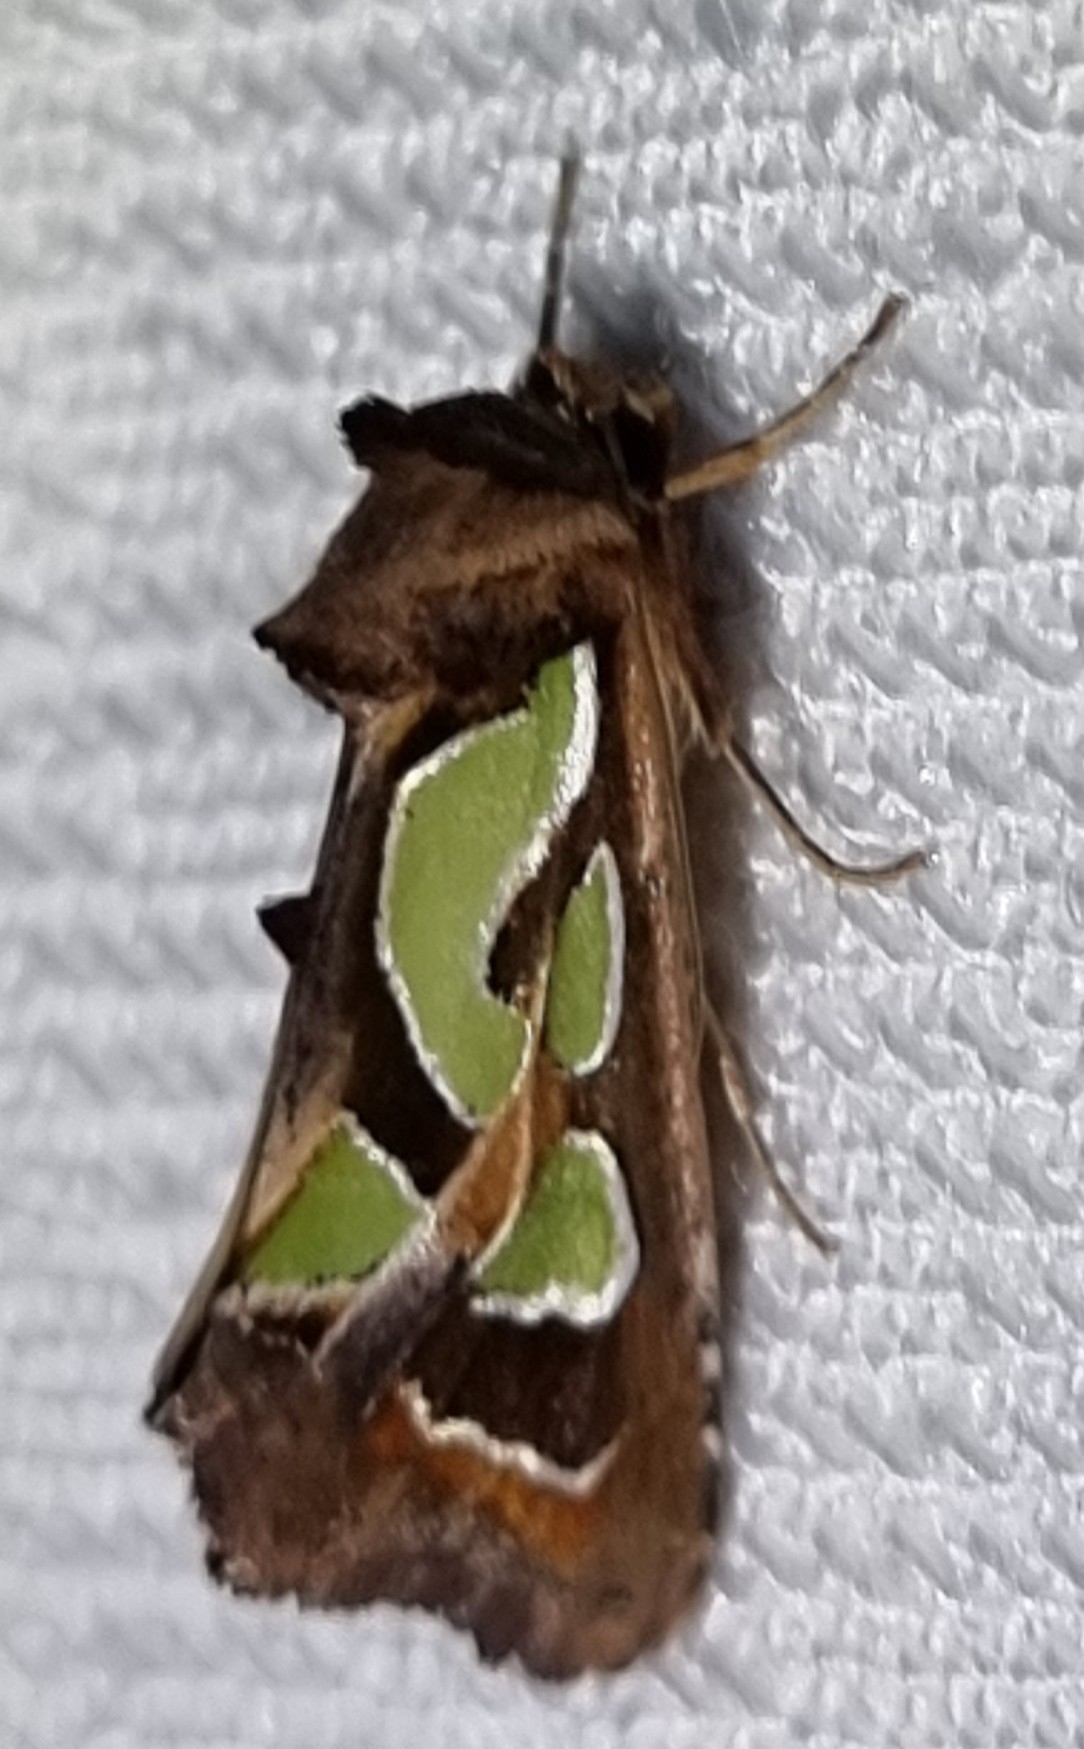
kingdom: Animalia
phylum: Arthropoda
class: Insecta
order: Lepidoptera
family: Noctuidae
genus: Cosmodes
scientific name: Cosmodes elegans
